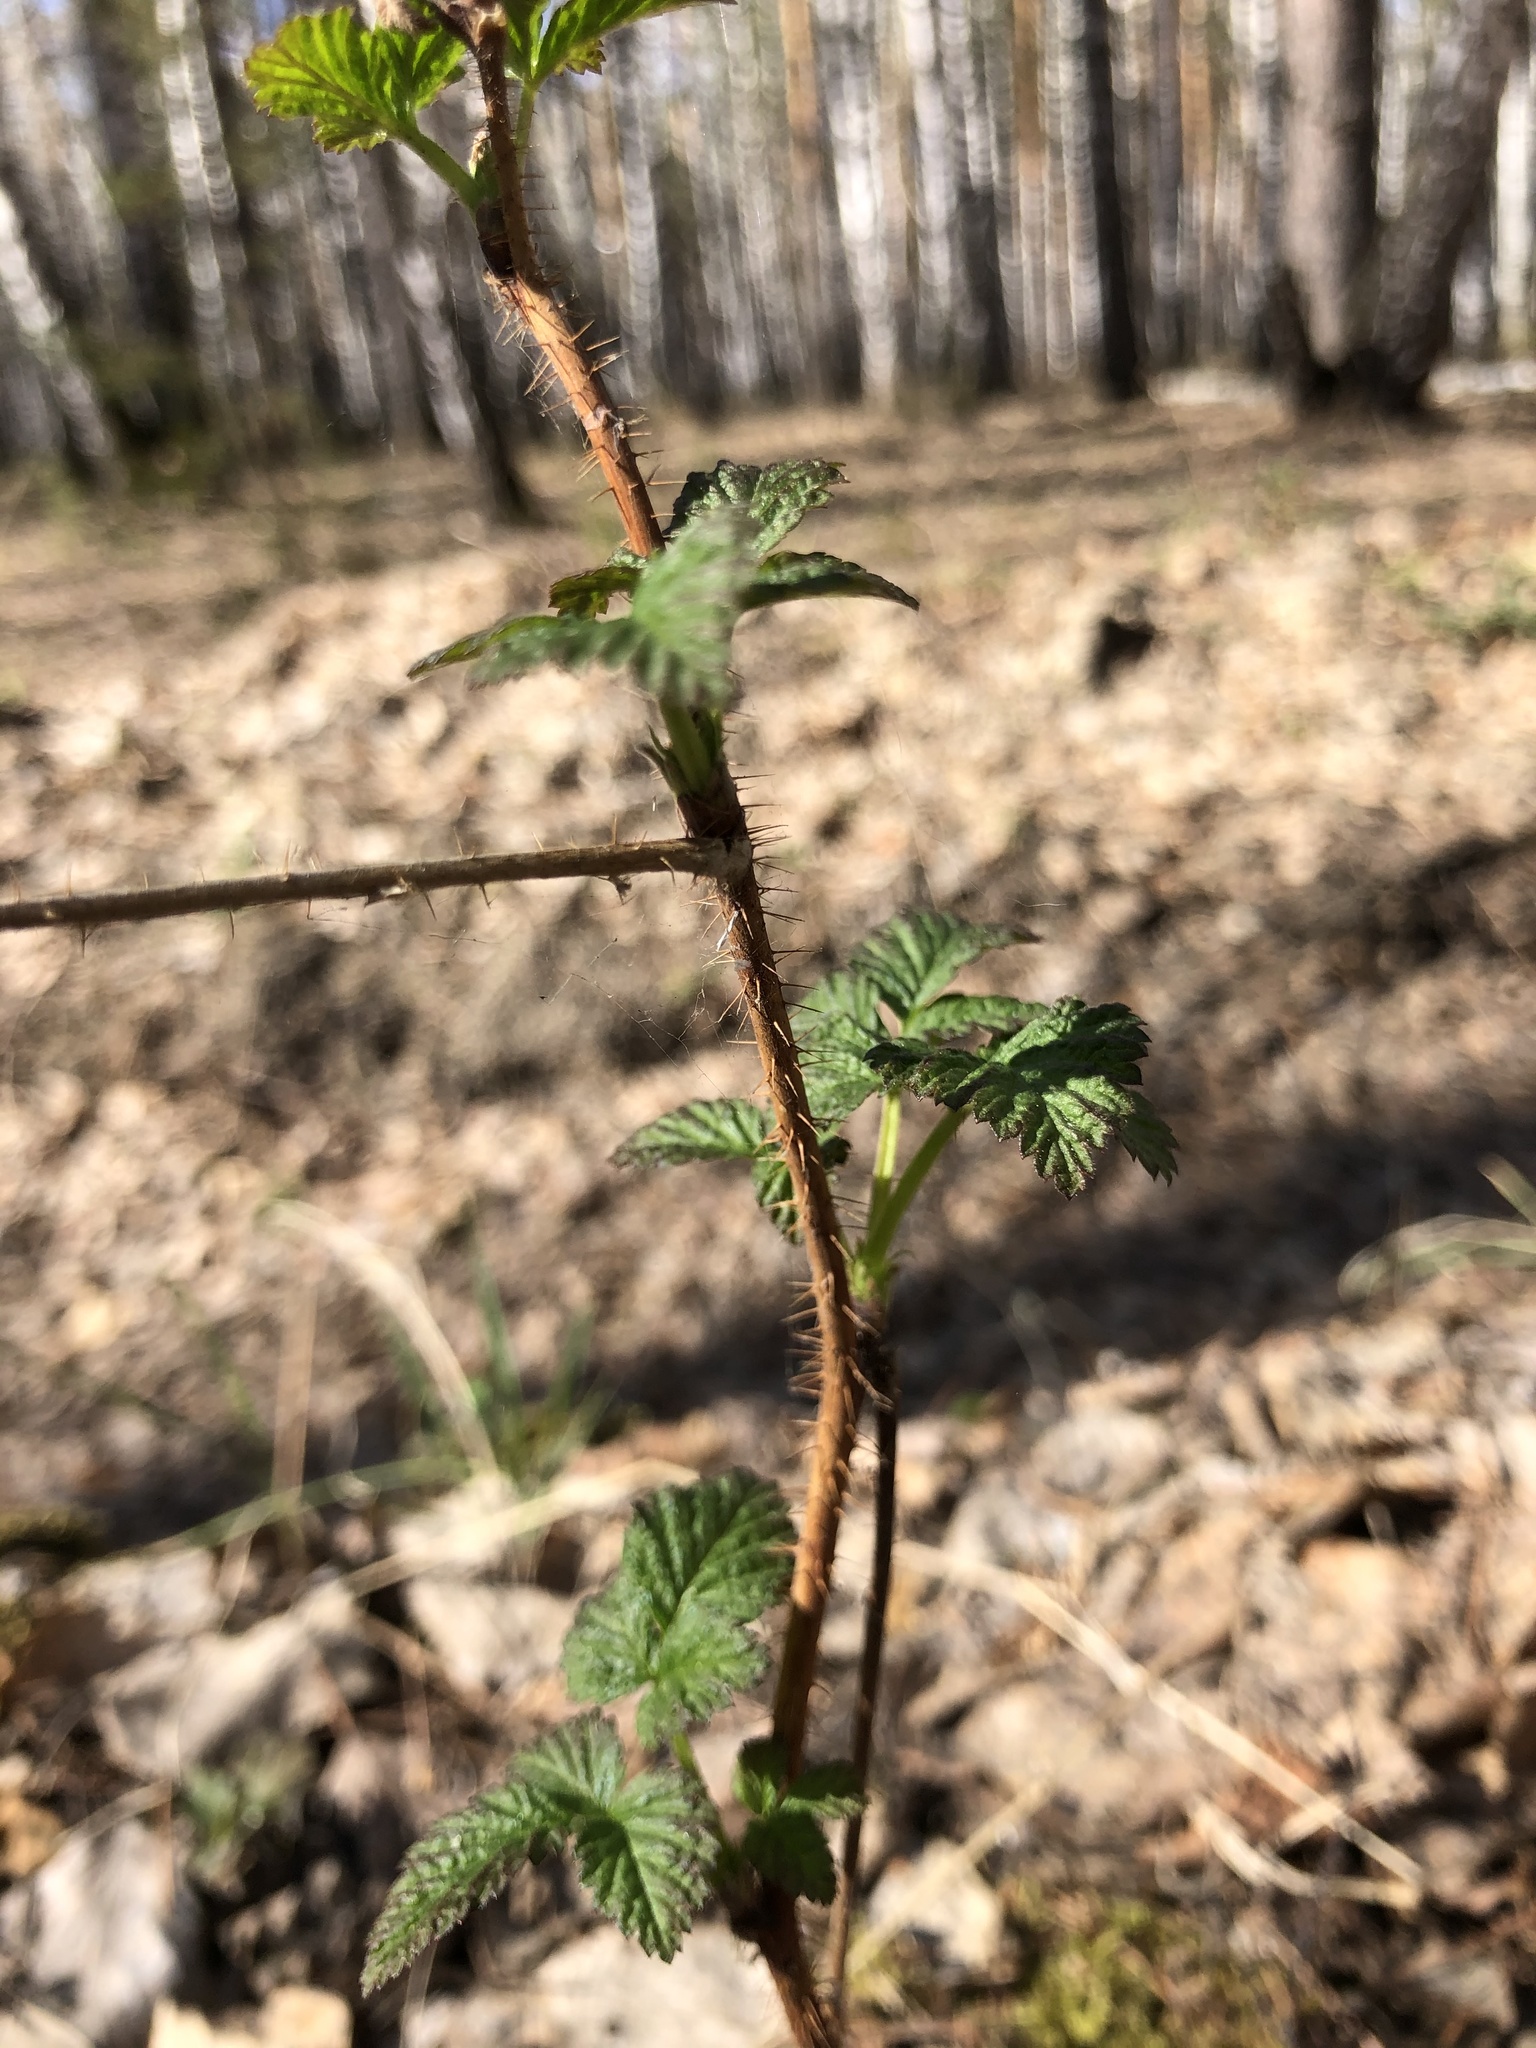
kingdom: Plantae
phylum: Tracheophyta
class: Magnoliopsida
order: Rosales
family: Rosaceae
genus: Rubus
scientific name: Rubus idaeus
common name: Raspberry
